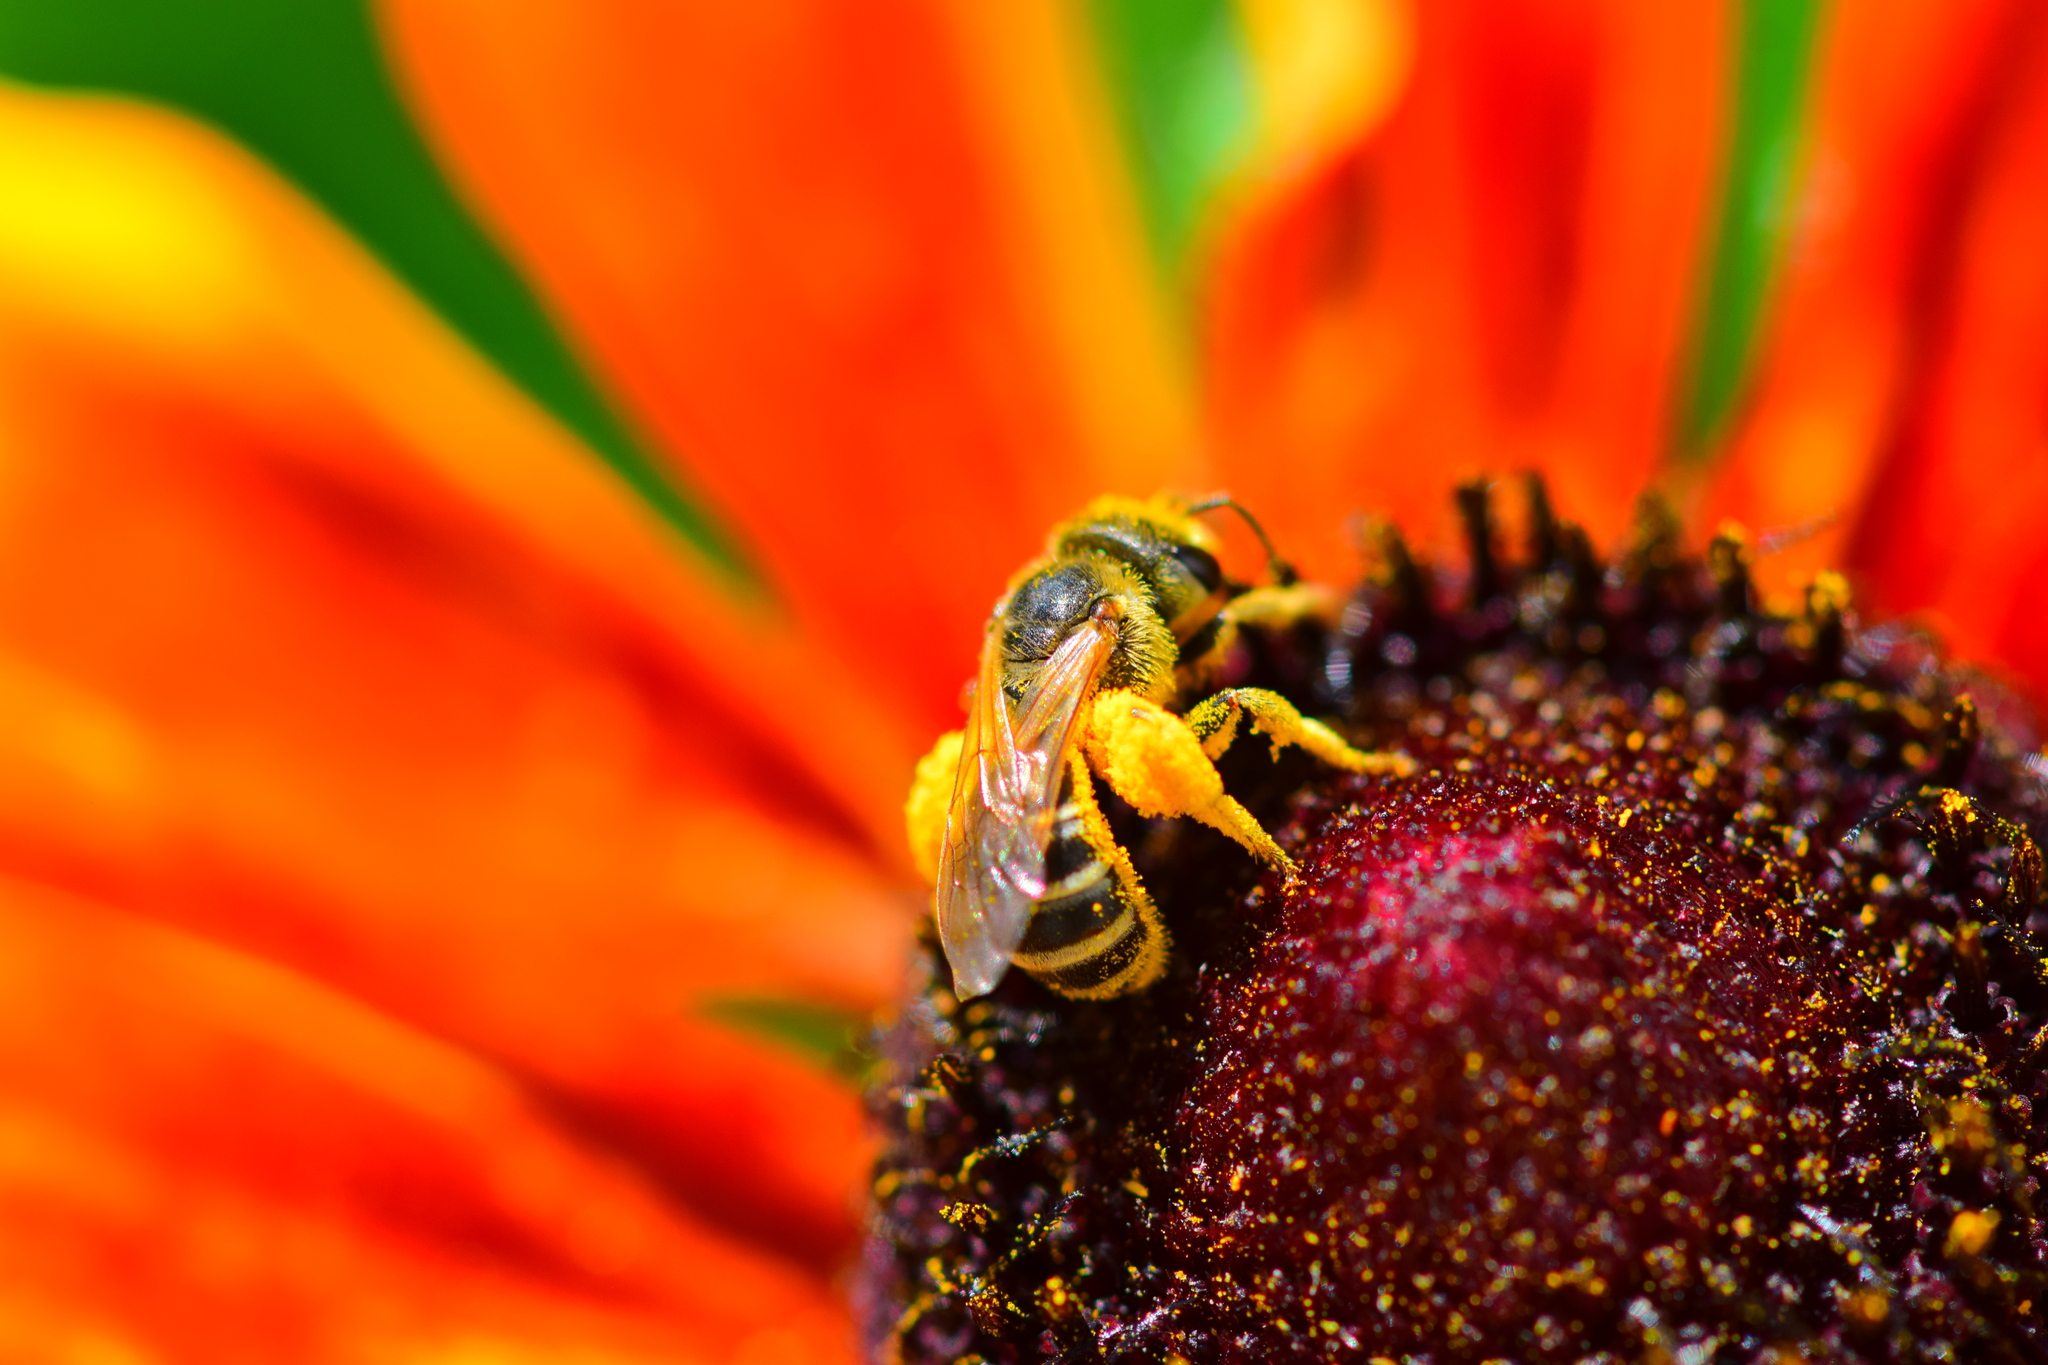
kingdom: Animalia
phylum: Arthropoda
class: Insecta
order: Hymenoptera
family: Halictidae
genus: Halictus
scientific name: Halictus ligatus
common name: Ligated furrow bee
